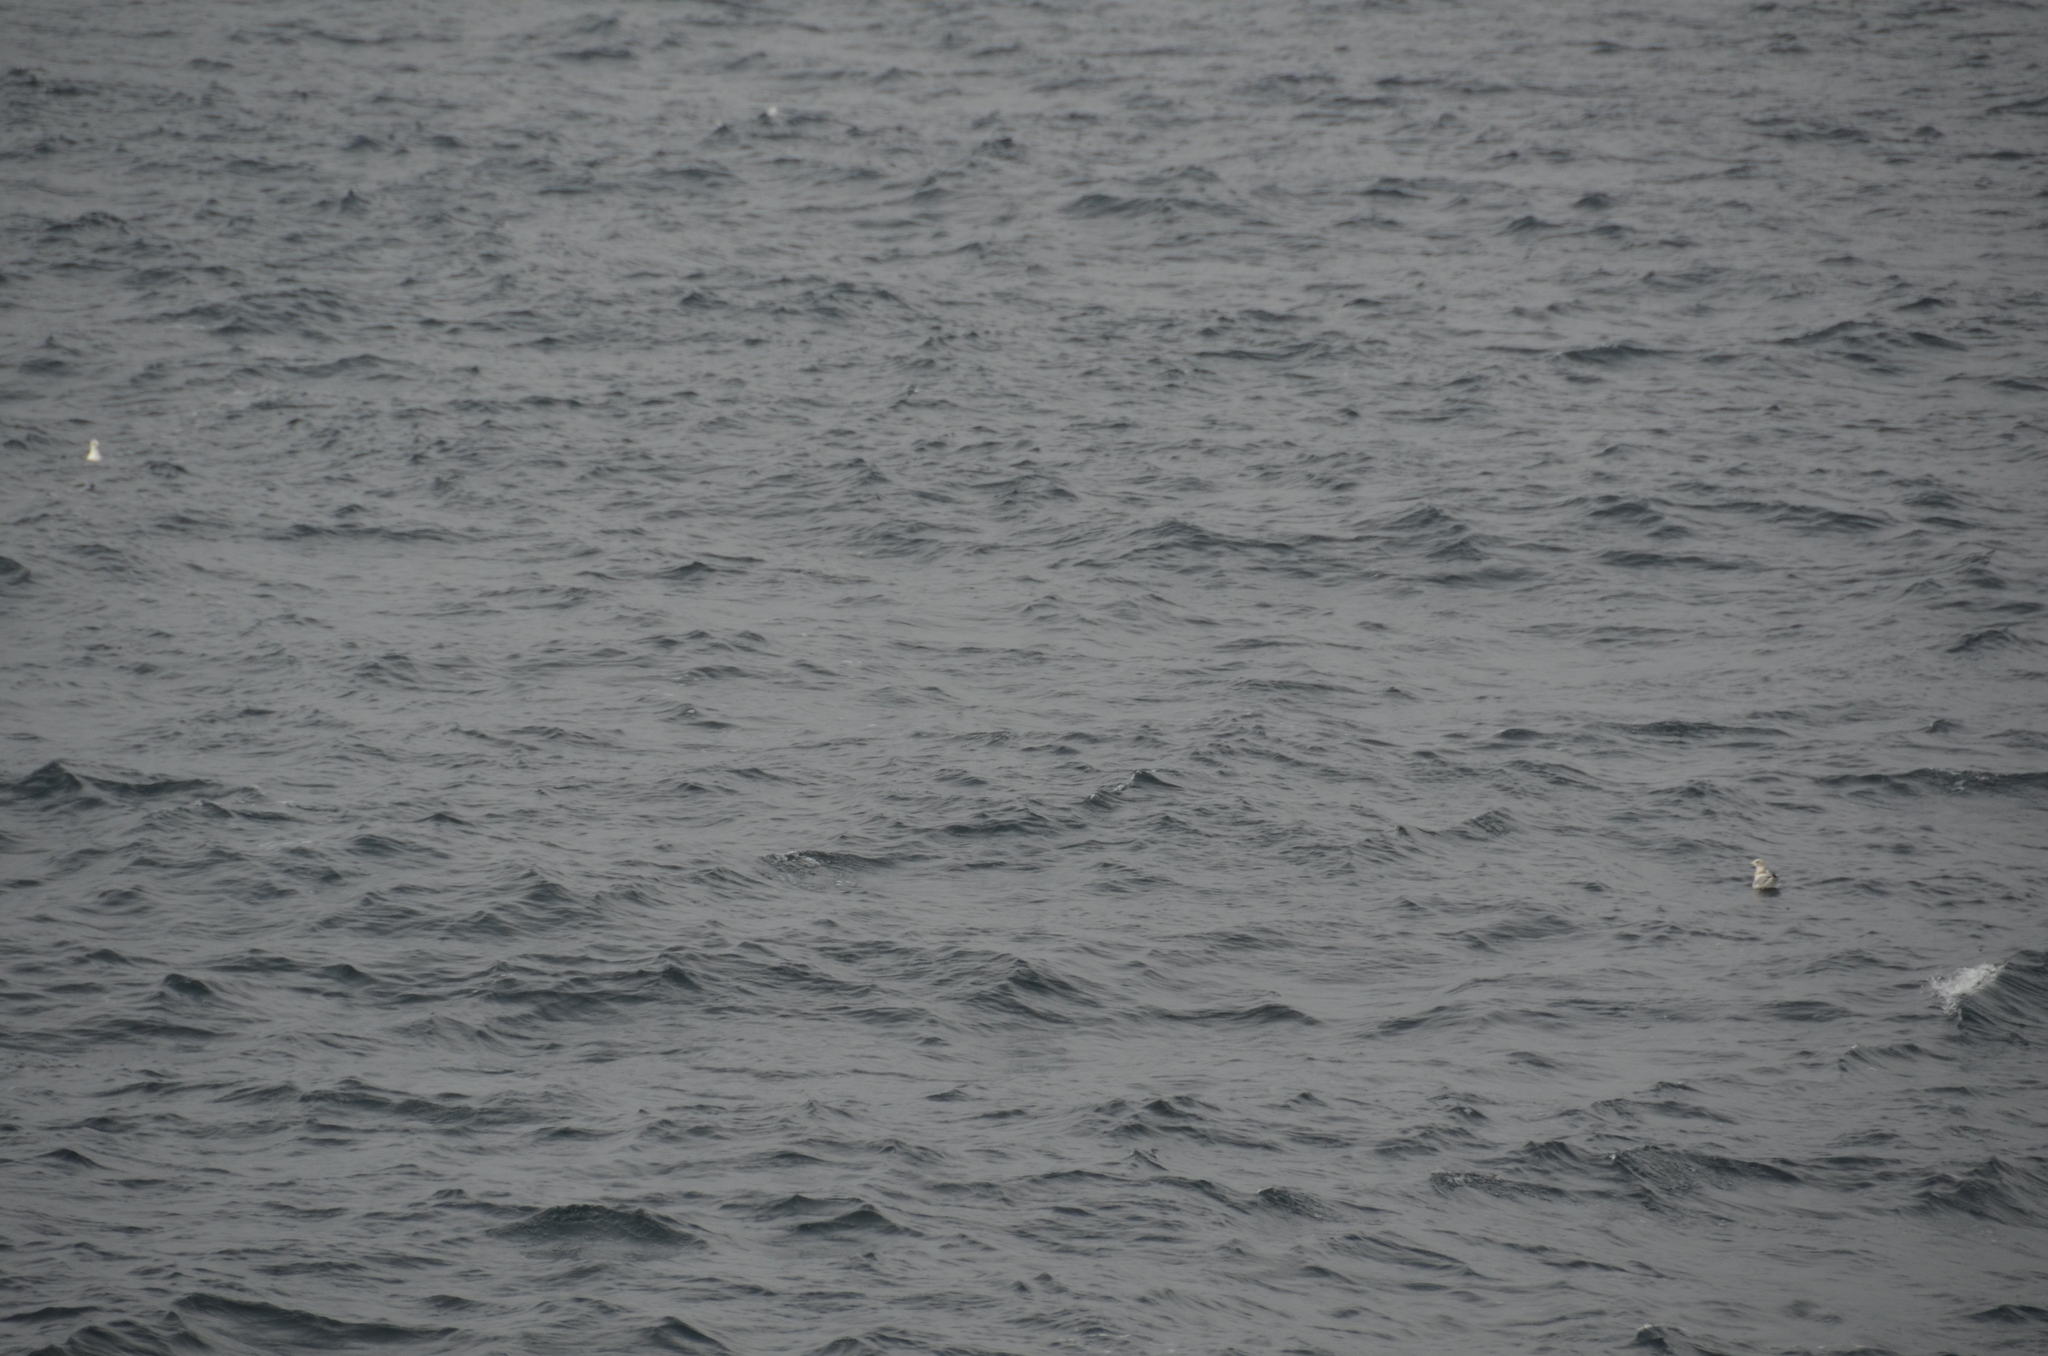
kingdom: Animalia
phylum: Chordata
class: Aves
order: Charadriiformes
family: Laridae
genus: Larus
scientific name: Larus brachyrhynchus
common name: Short-billed gull
